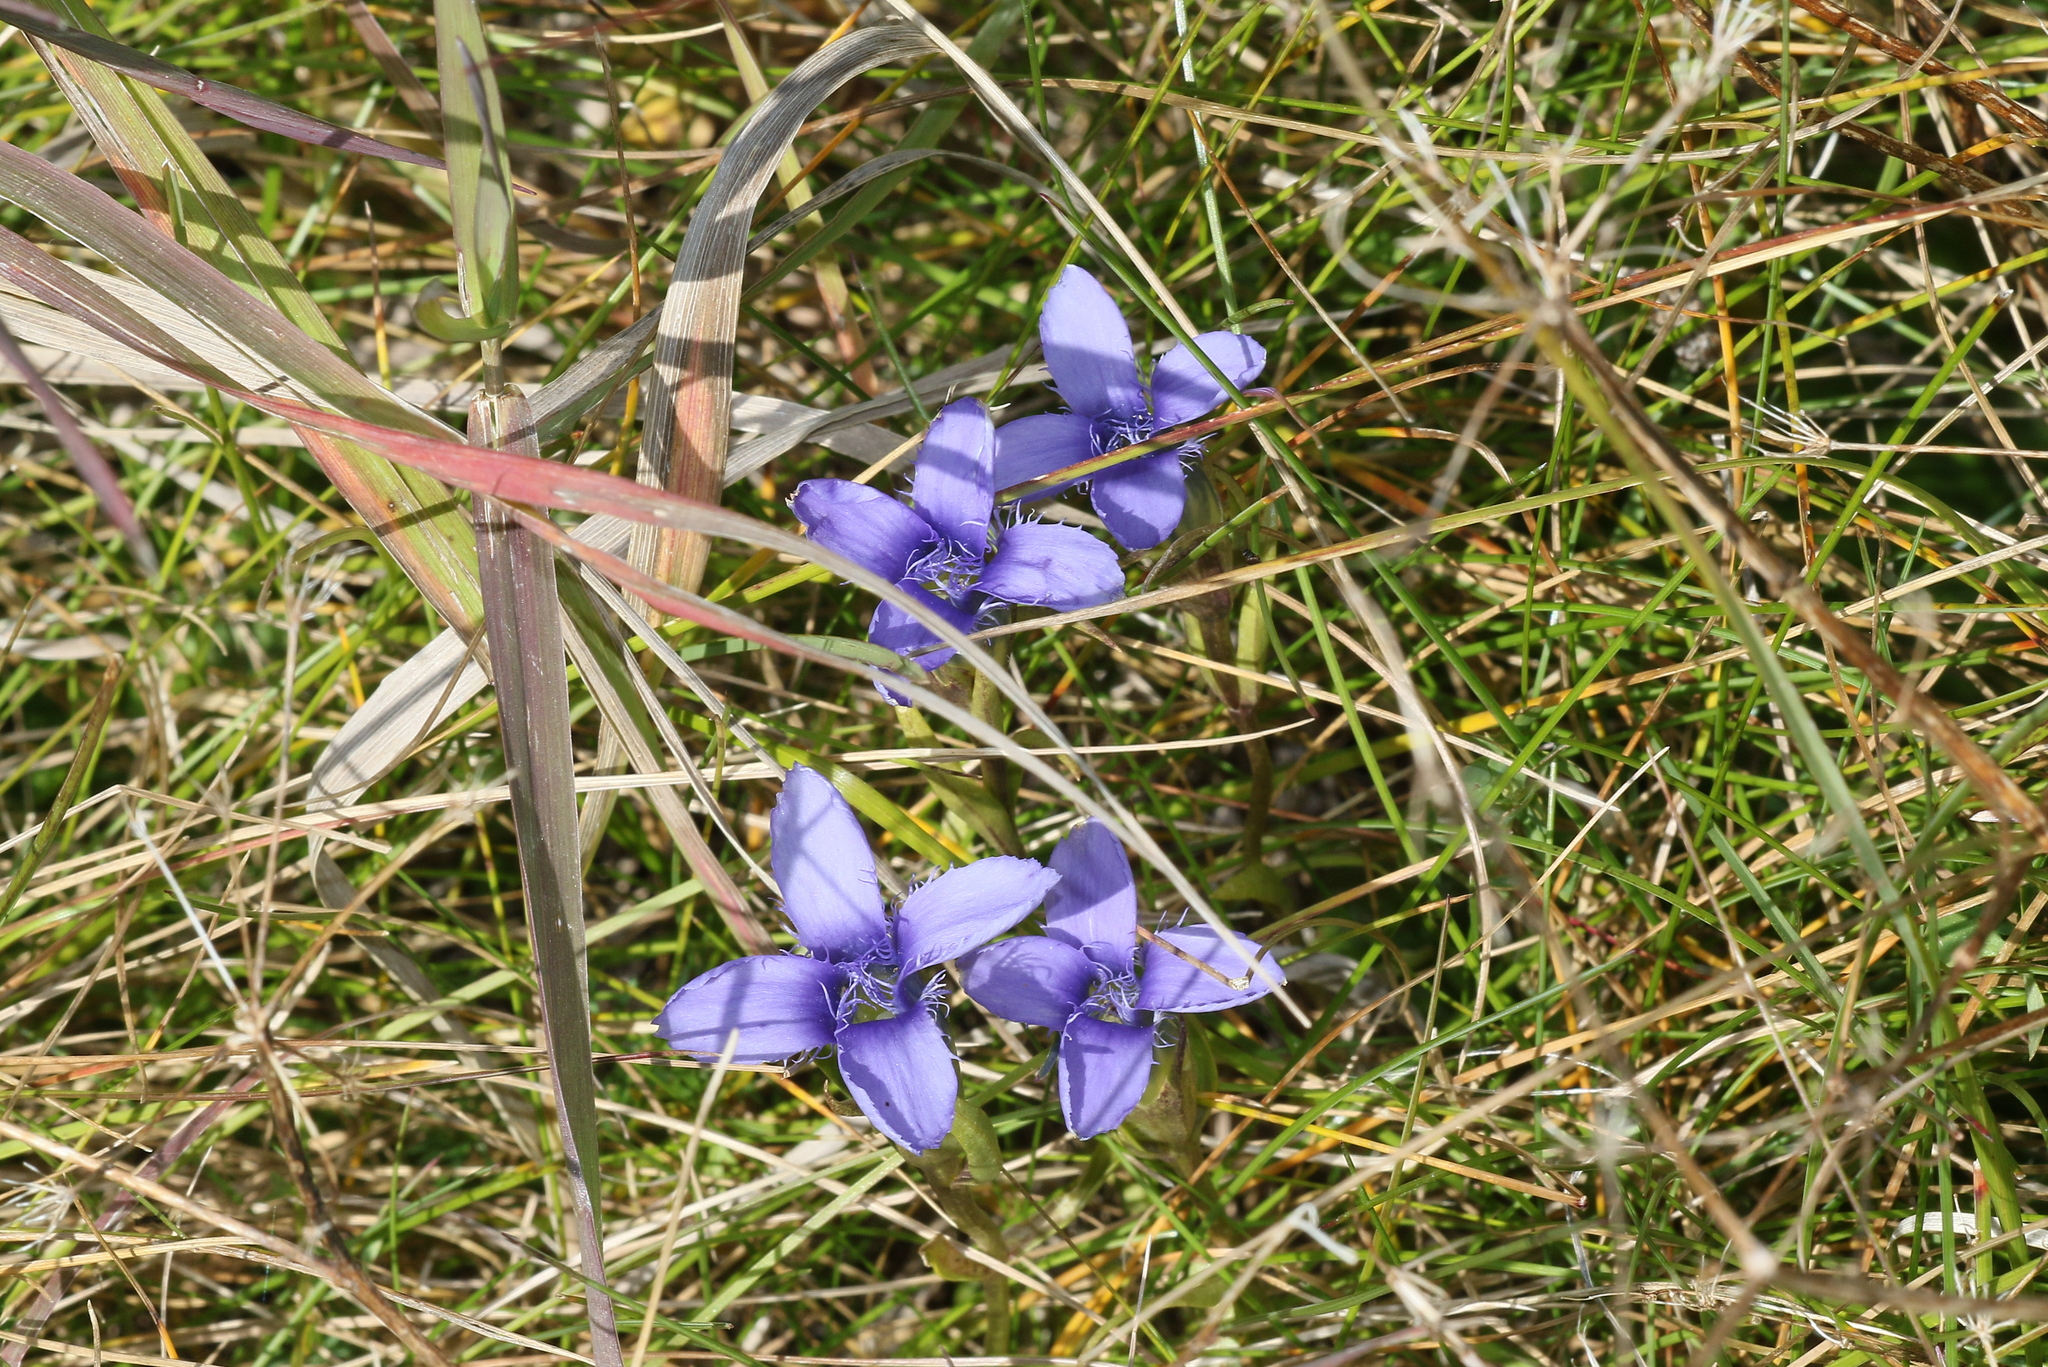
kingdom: Plantae
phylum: Tracheophyta
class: Magnoliopsida
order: Gentianales
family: Gentianaceae
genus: Gentianopsis
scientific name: Gentianopsis ciliata
